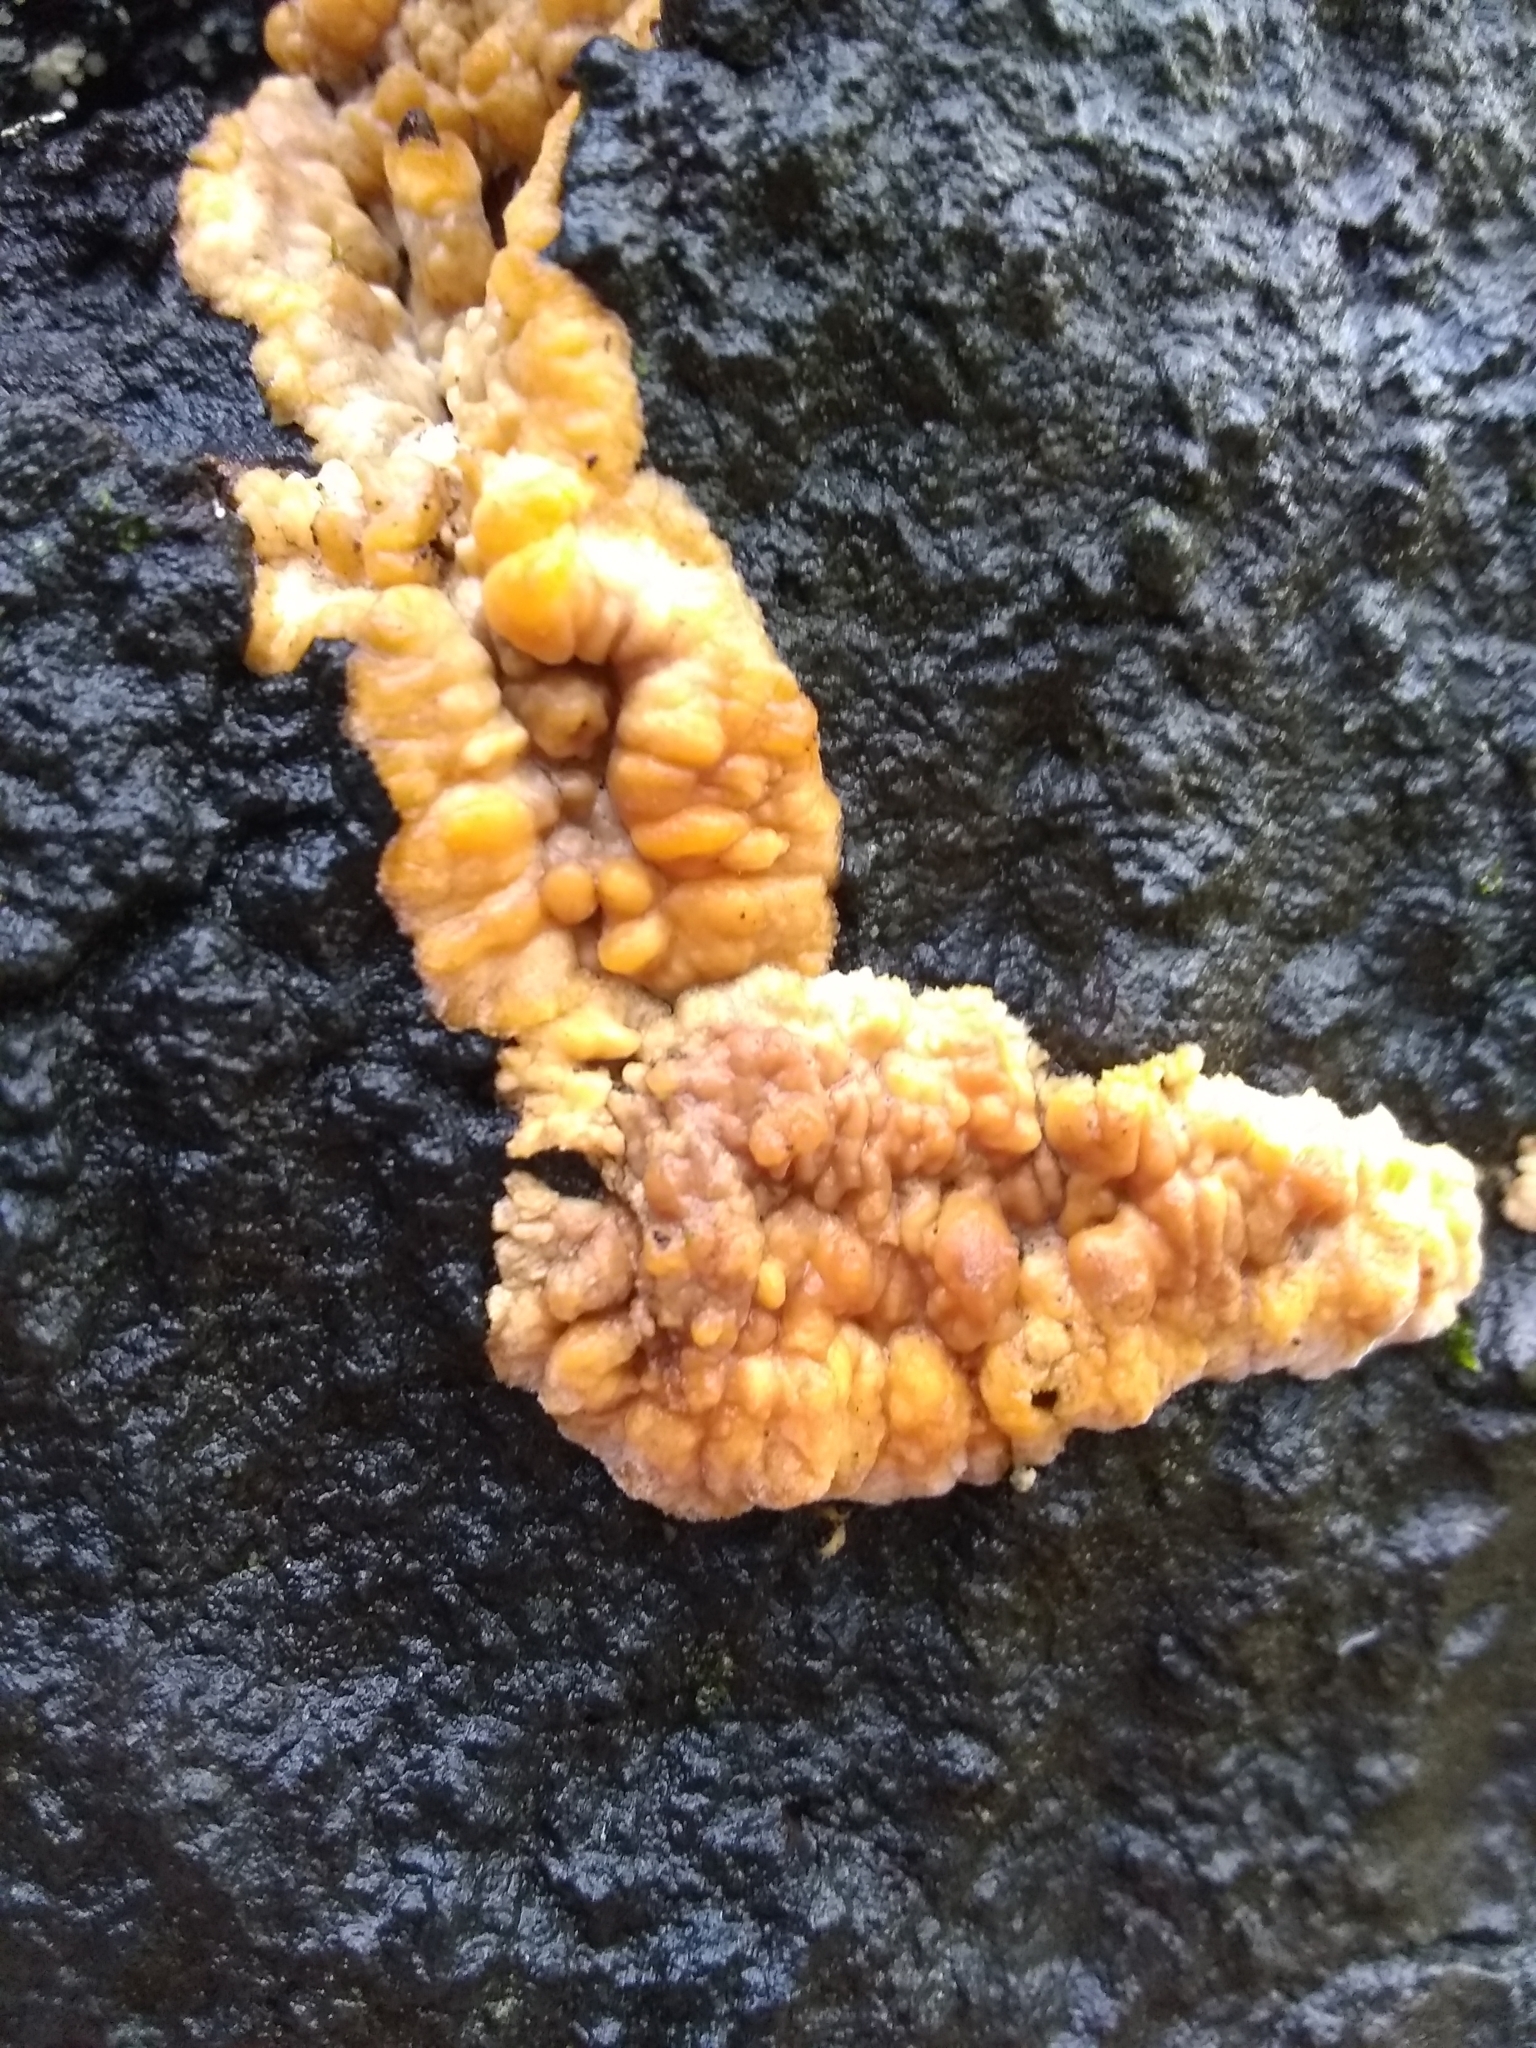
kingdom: Fungi
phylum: Basidiomycota
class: Agaricomycetes
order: Polyporales
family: Meruliaceae
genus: Phlebia
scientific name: Phlebia radiata
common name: Wrinkled crust
